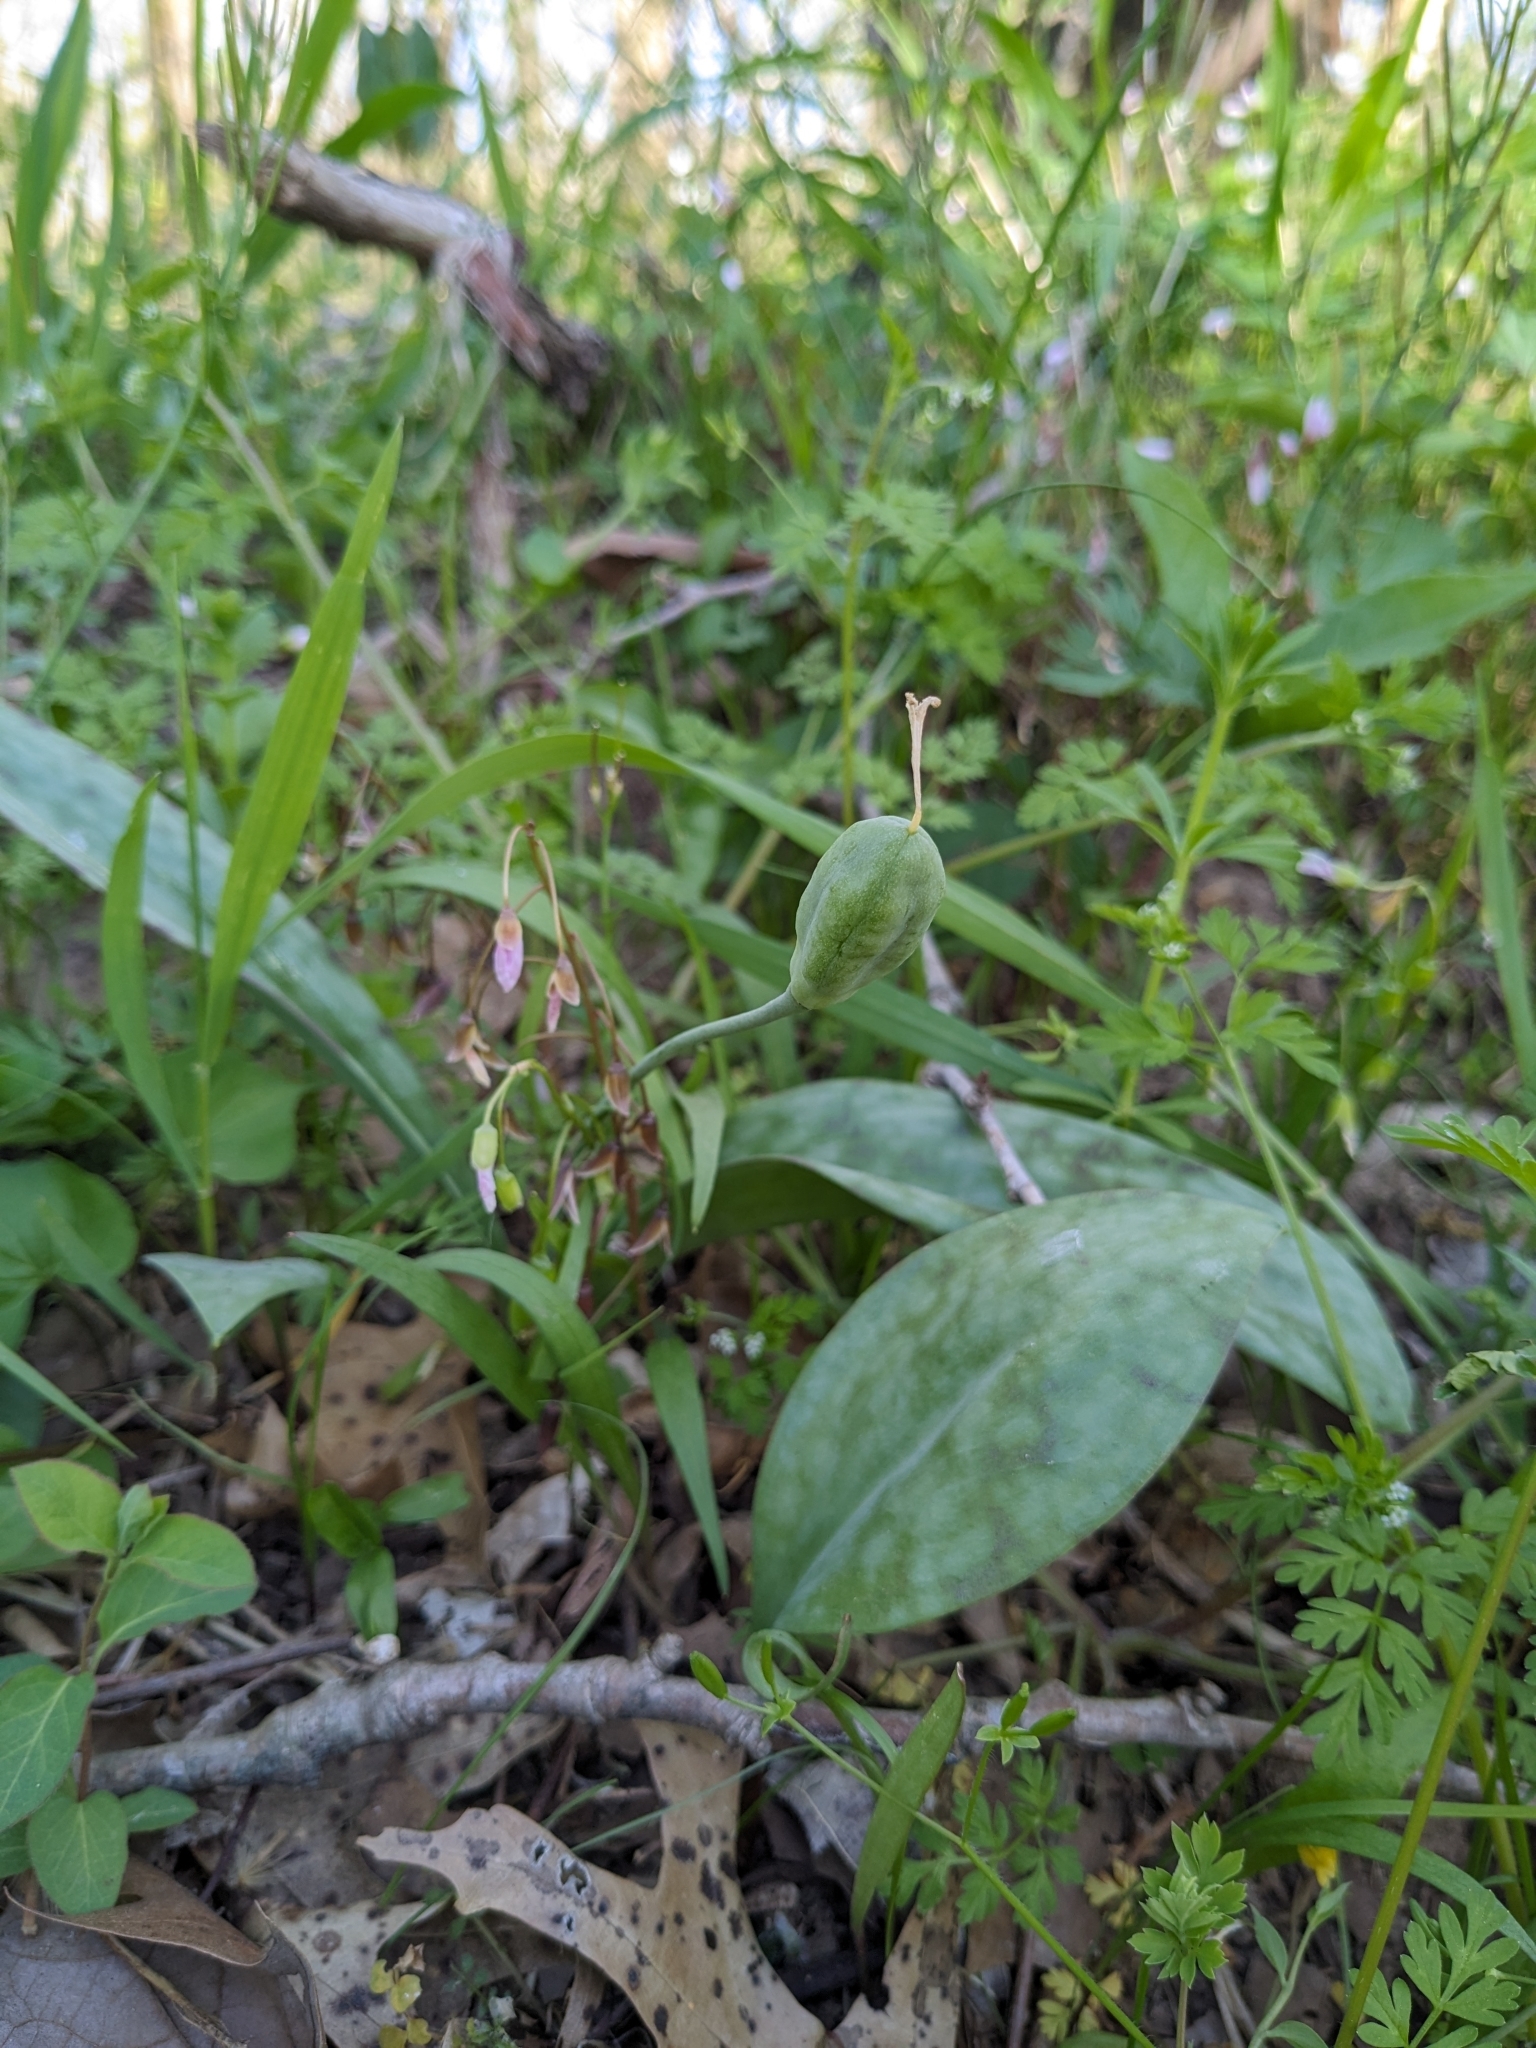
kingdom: Plantae
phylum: Tracheophyta
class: Liliopsida
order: Liliales
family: Liliaceae
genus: Erythronium
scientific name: Erythronium albidum
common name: White trout-lily
